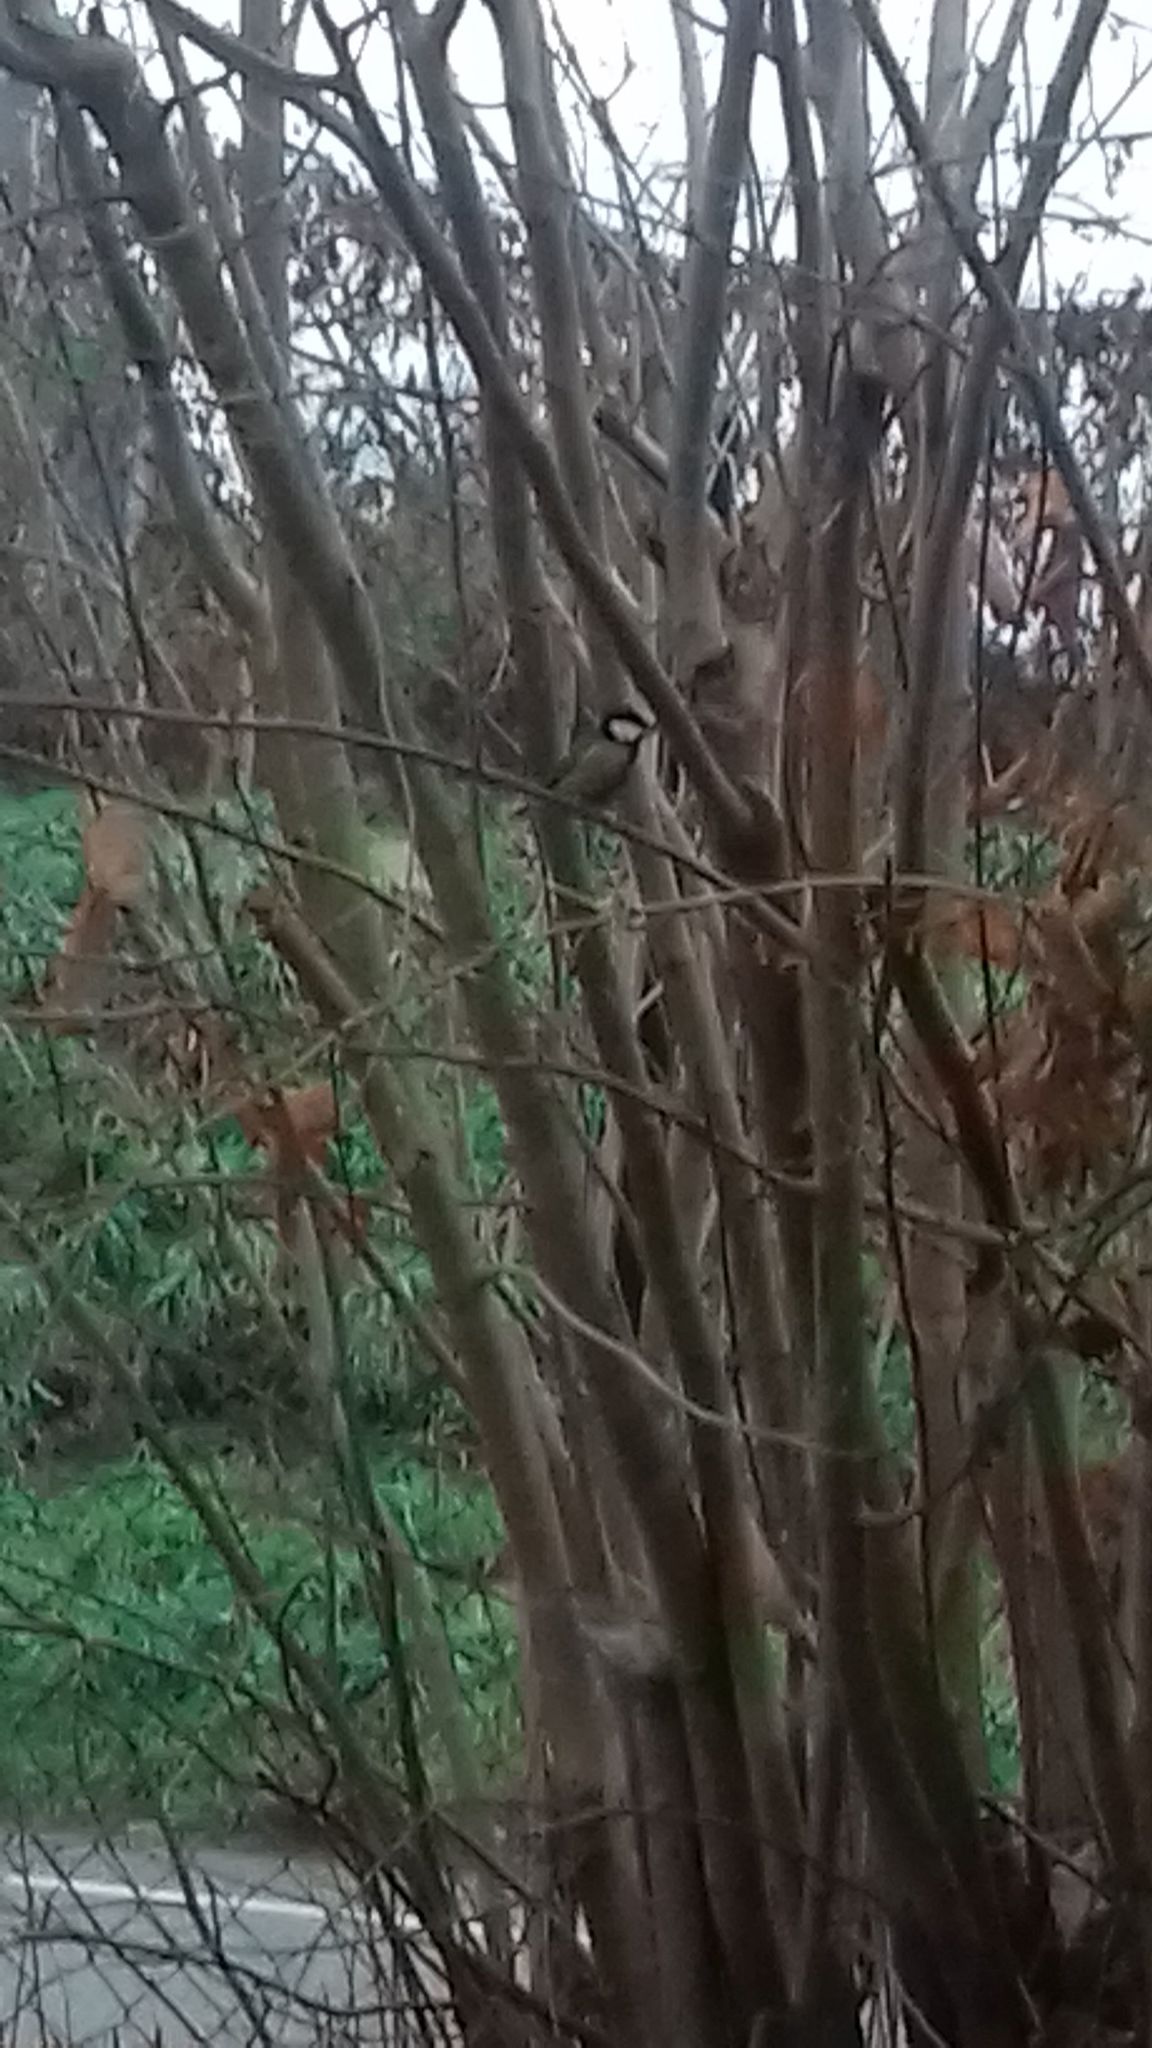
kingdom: Animalia
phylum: Chordata
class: Aves
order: Passeriformes
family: Paridae
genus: Parus
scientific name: Parus major
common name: Great tit
